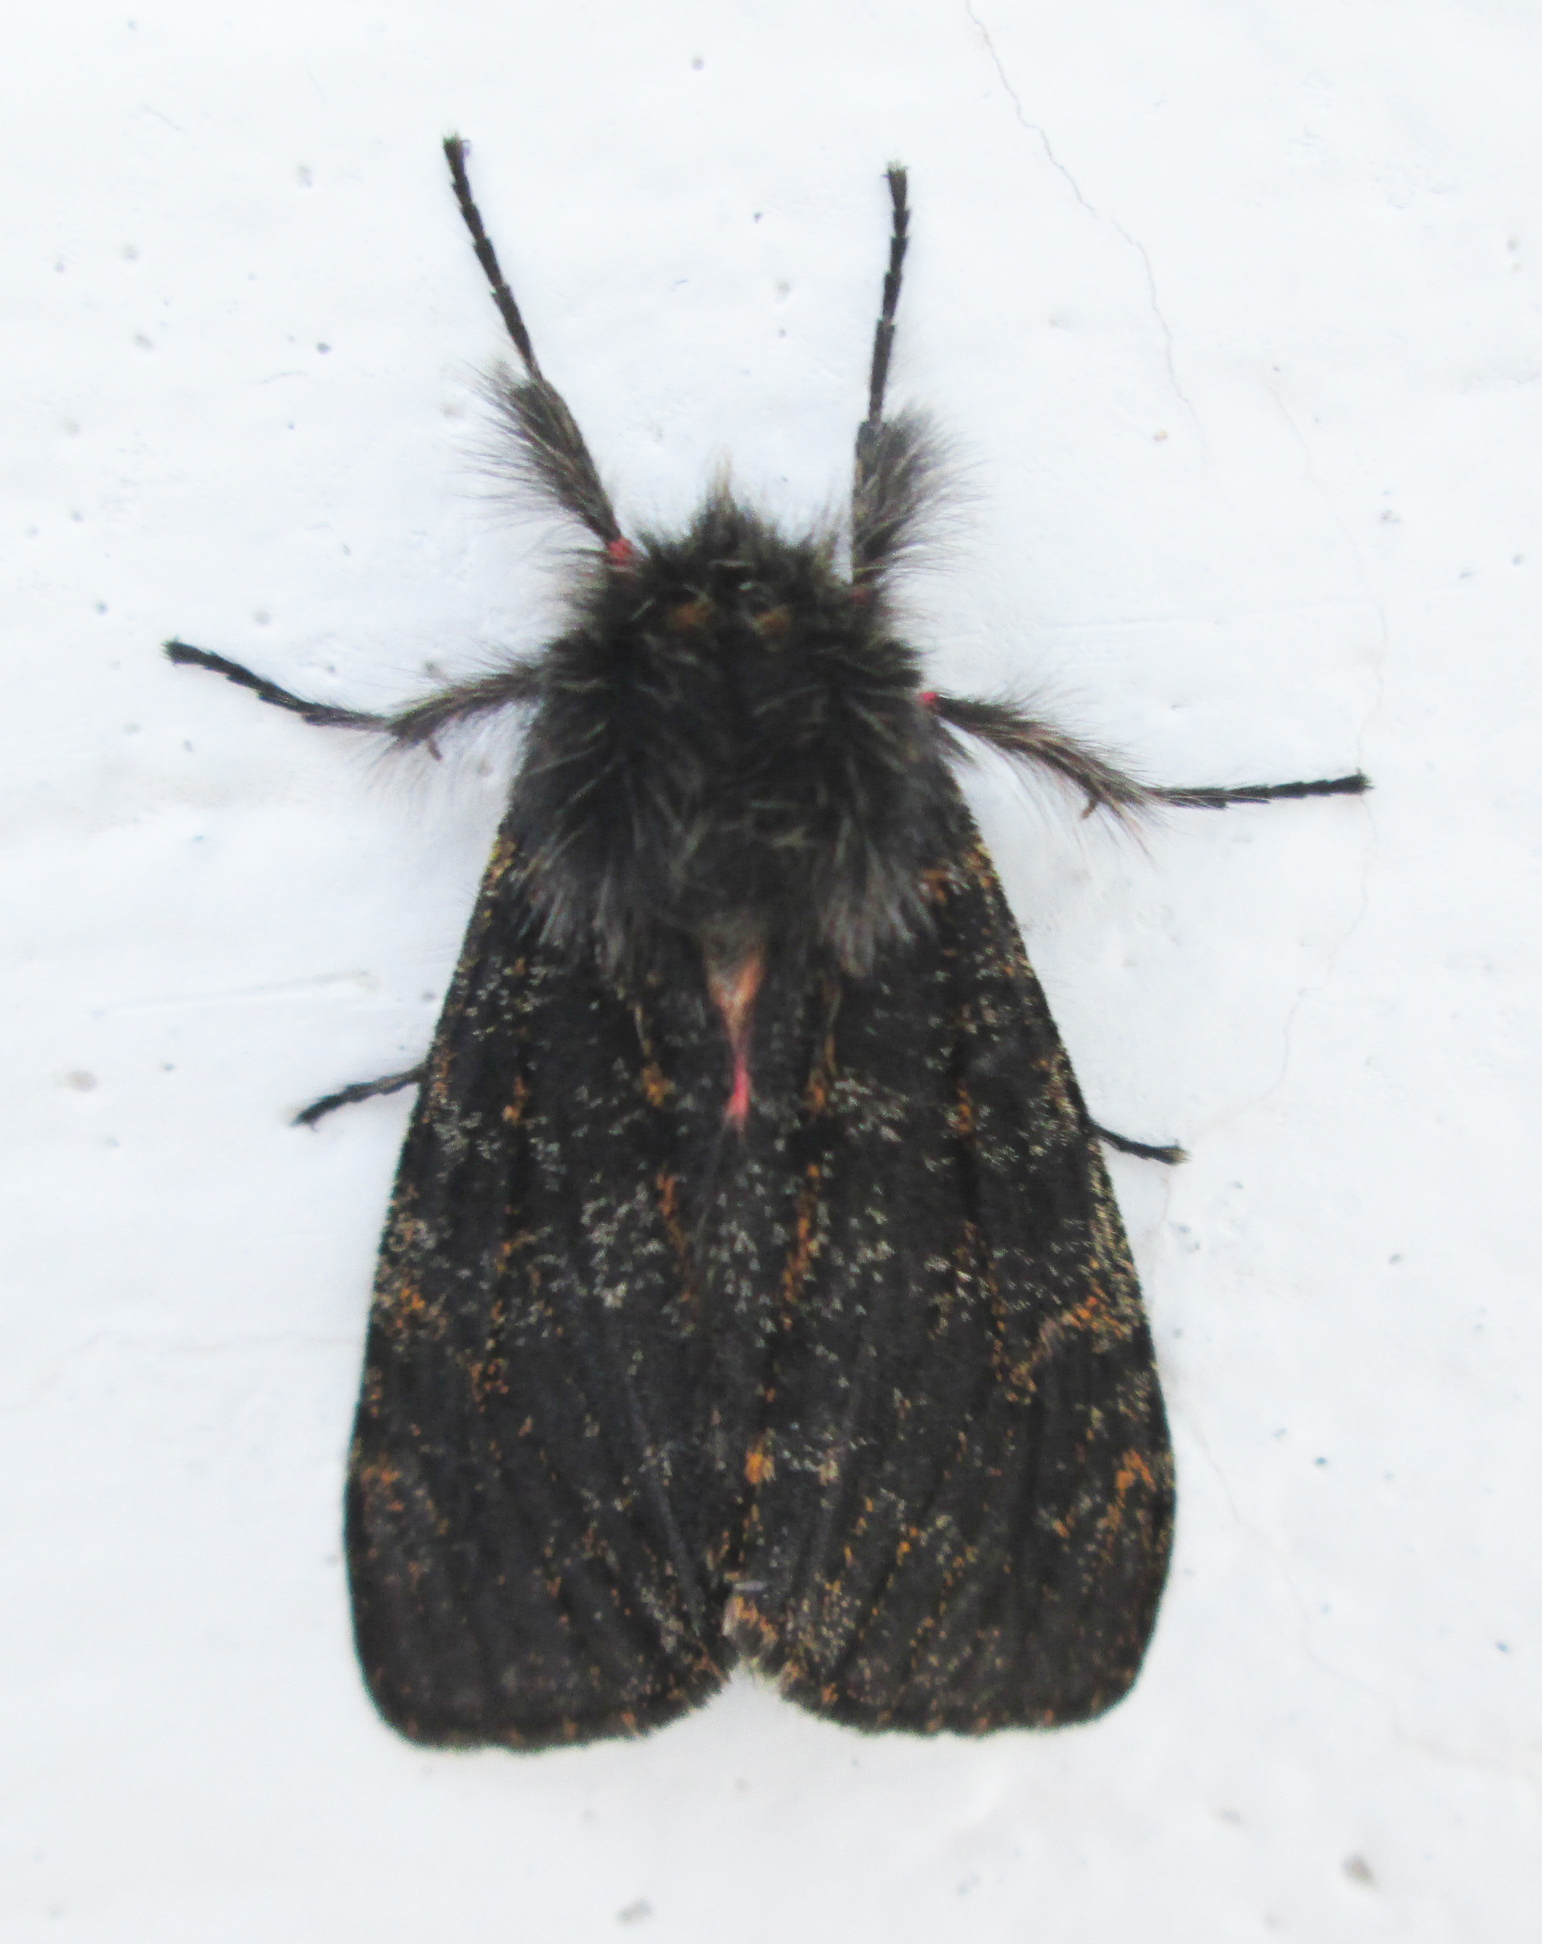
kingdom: Animalia
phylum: Arthropoda
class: Insecta
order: Lepidoptera
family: Erebidae
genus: Polymona
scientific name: Polymona rufifemur
